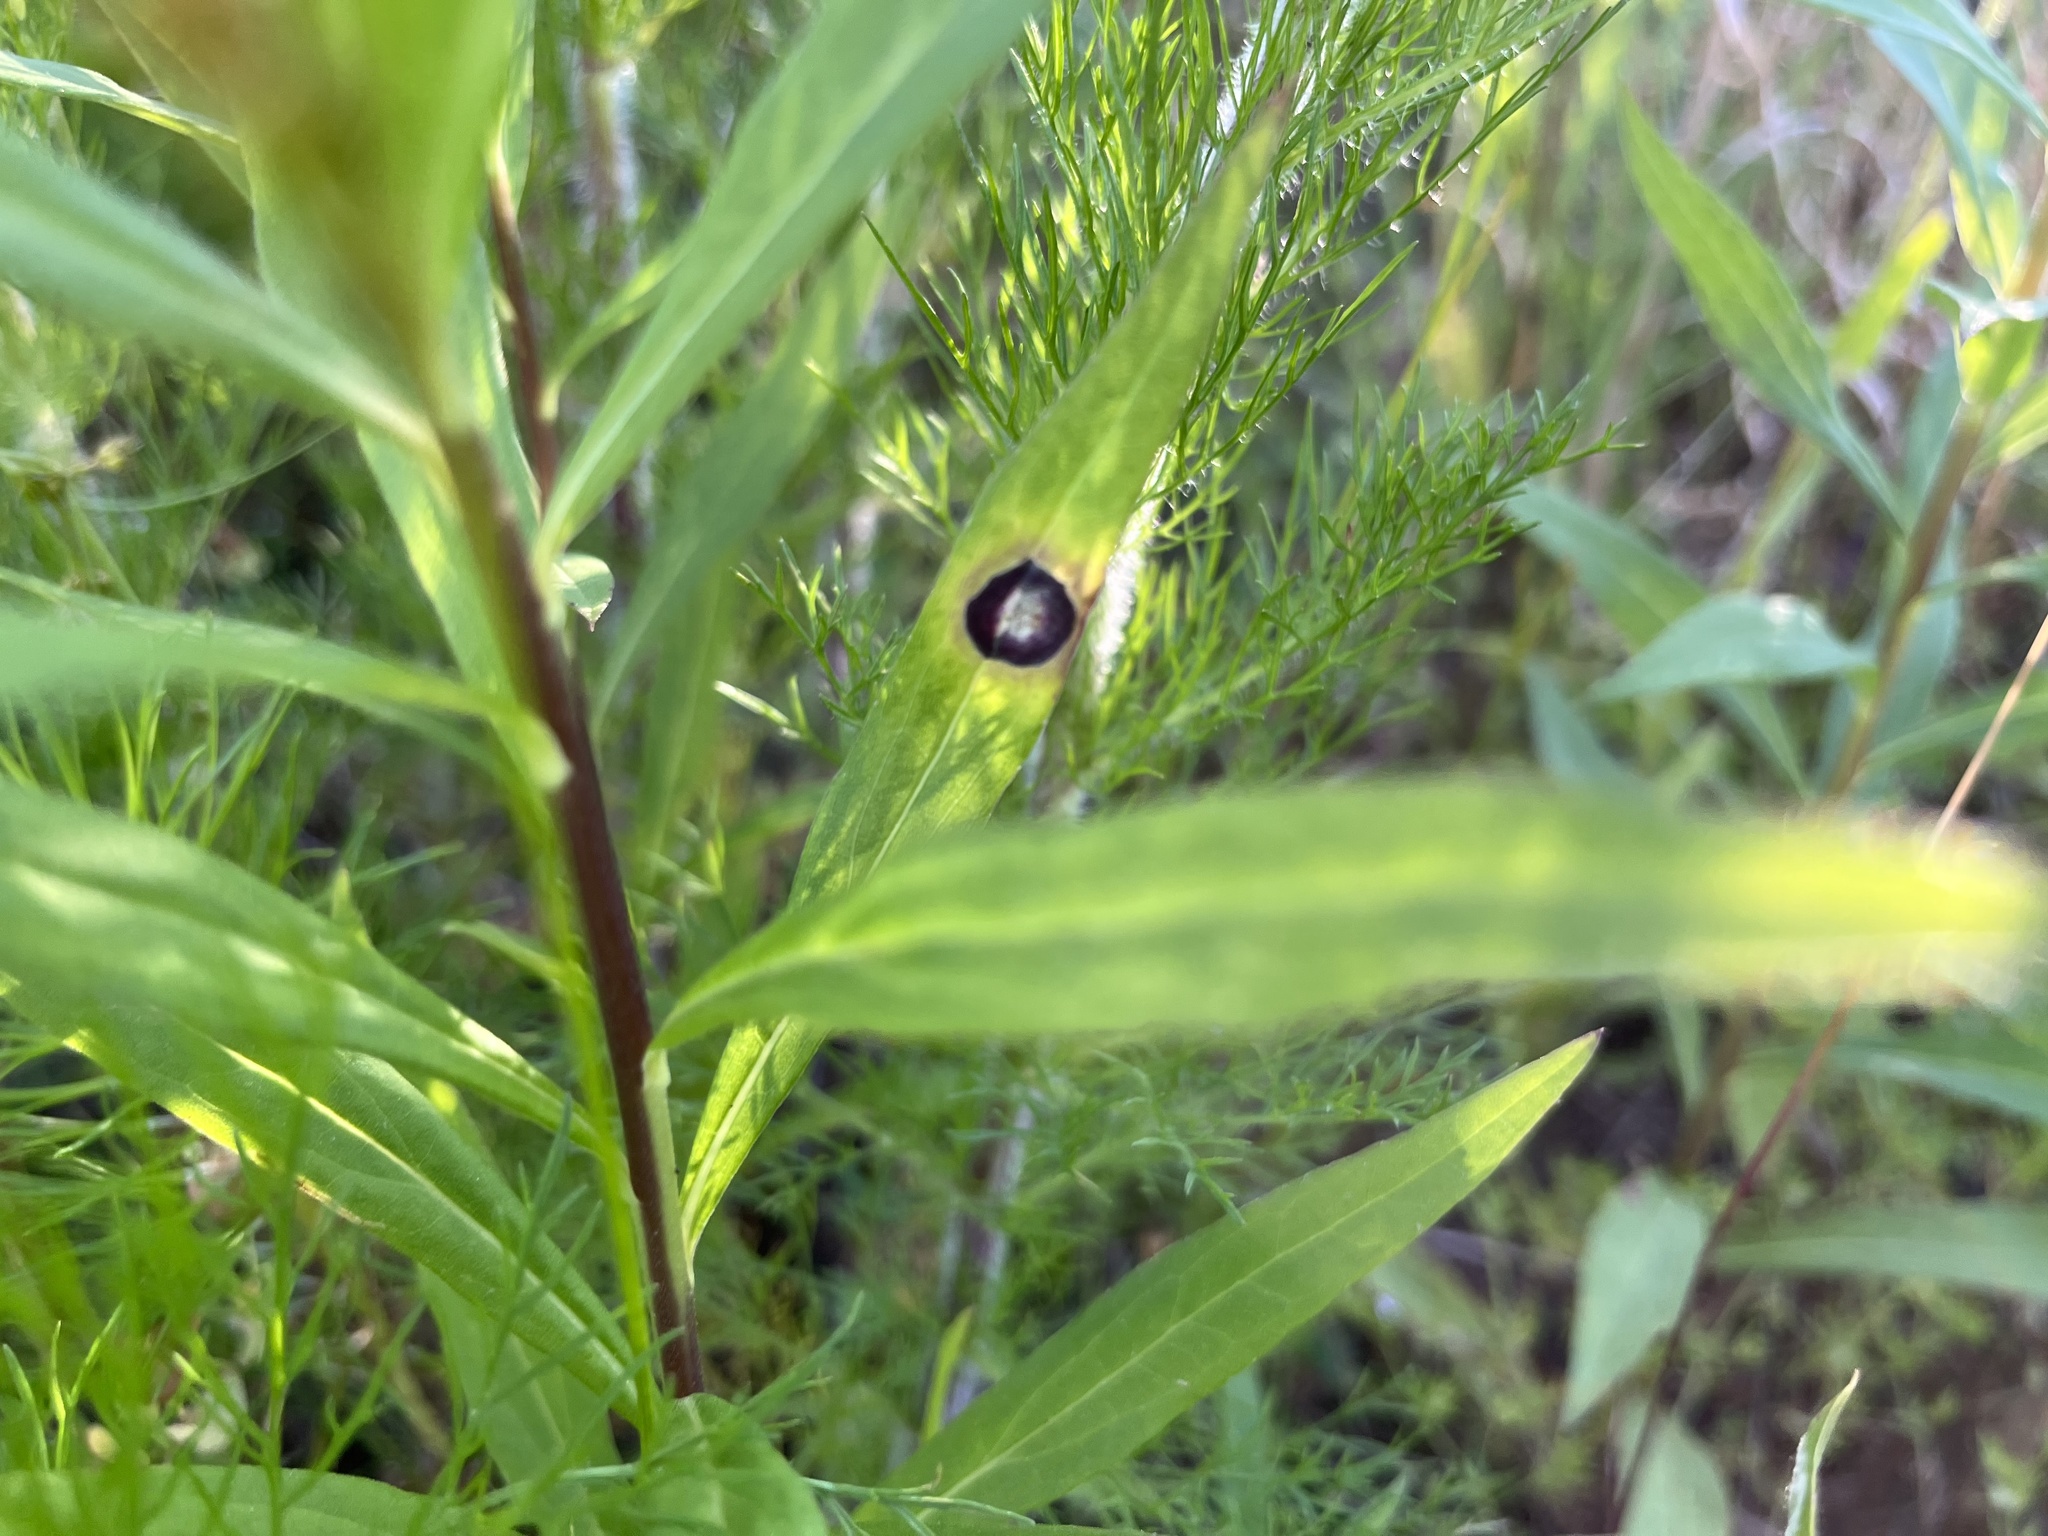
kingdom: Animalia
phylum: Arthropoda
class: Insecta
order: Diptera
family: Cecidomyiidae
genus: Asteromyia
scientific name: Asteromyia carbonifera
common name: Carbonifera goldenrod gall midge
